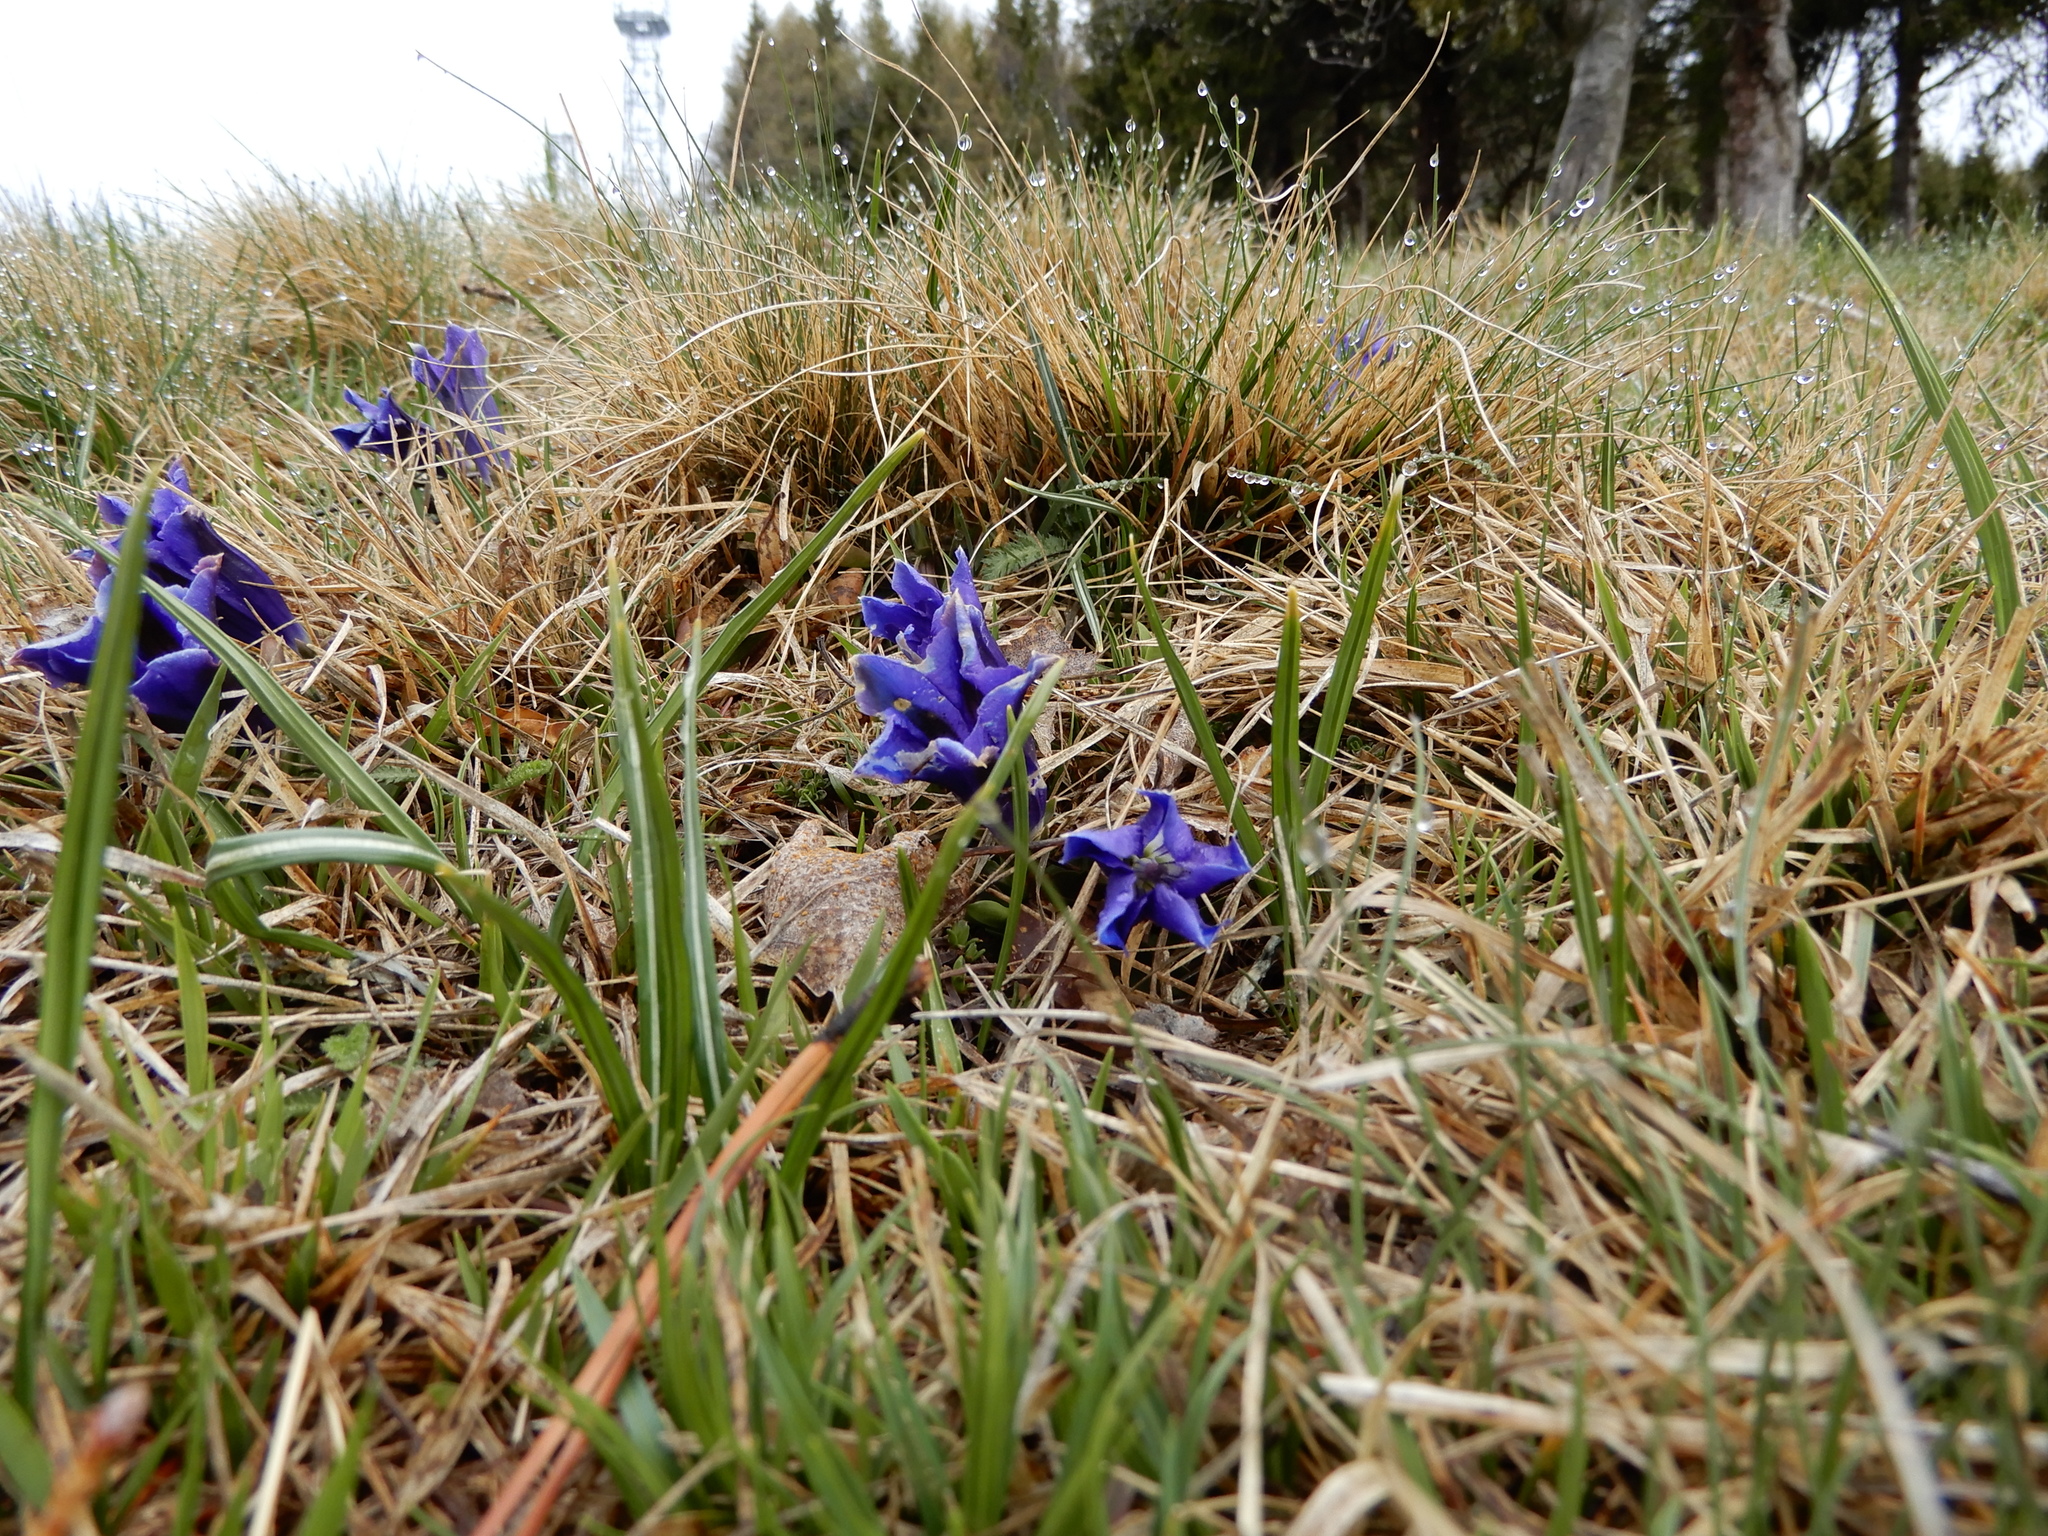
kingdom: Plantae
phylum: Tracheophyta
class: Magnoliopsida
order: Gentianales
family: Gentianaceae
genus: Gentiana
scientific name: Gentiana acaulis
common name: Trumpet gentian
